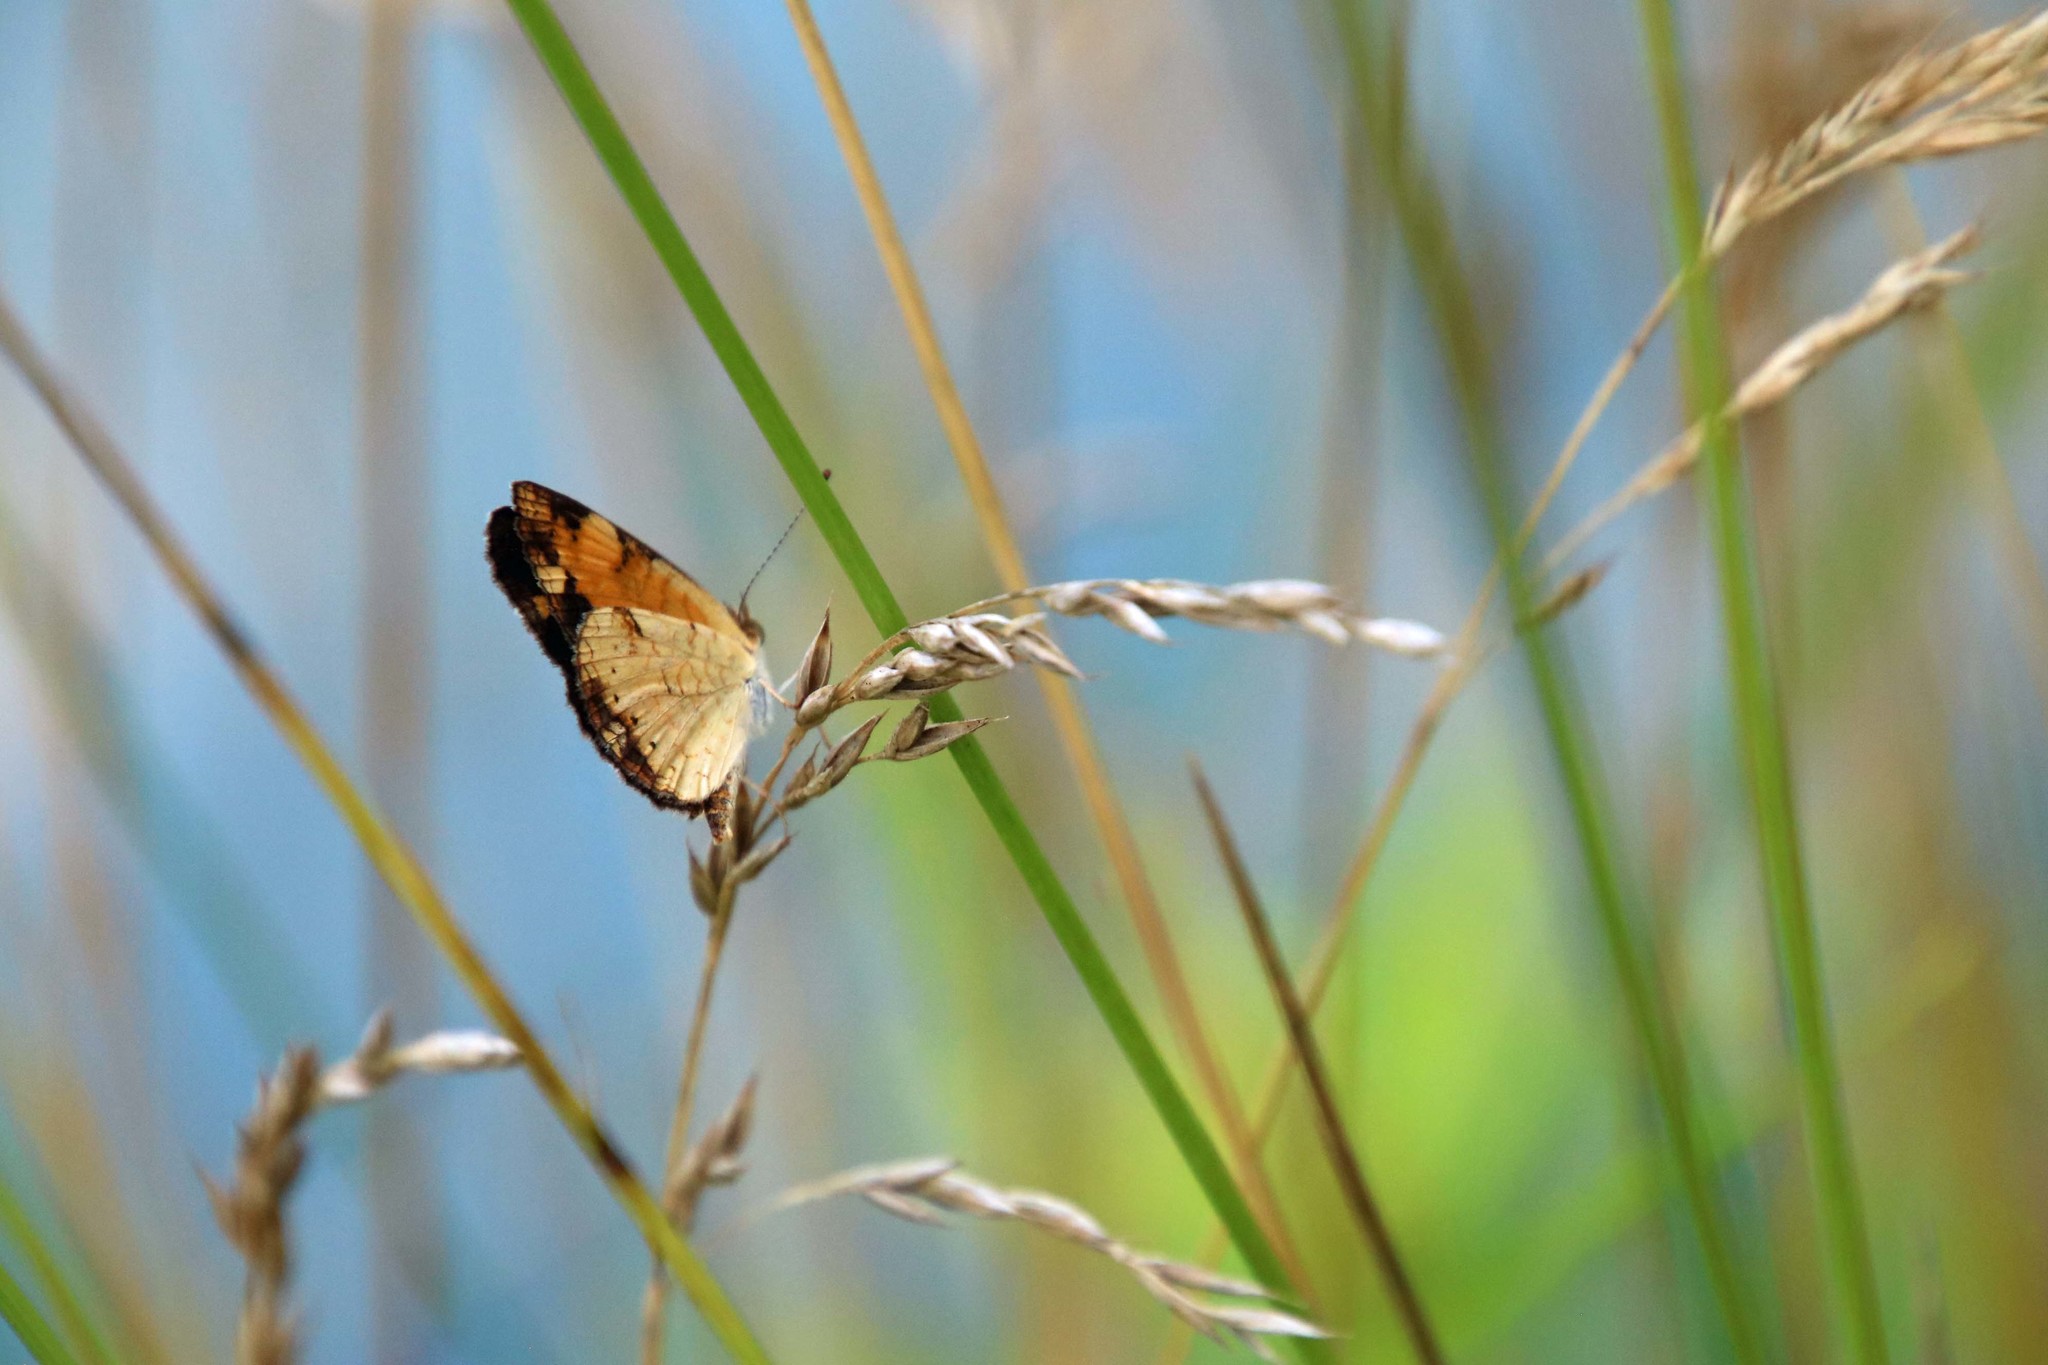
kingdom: Animalia
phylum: Arthropoda
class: Insecta
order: Lepidoptera
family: Nymphalidae
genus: Phyciodes
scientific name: Phyciodes tharos
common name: Pearl crescent
